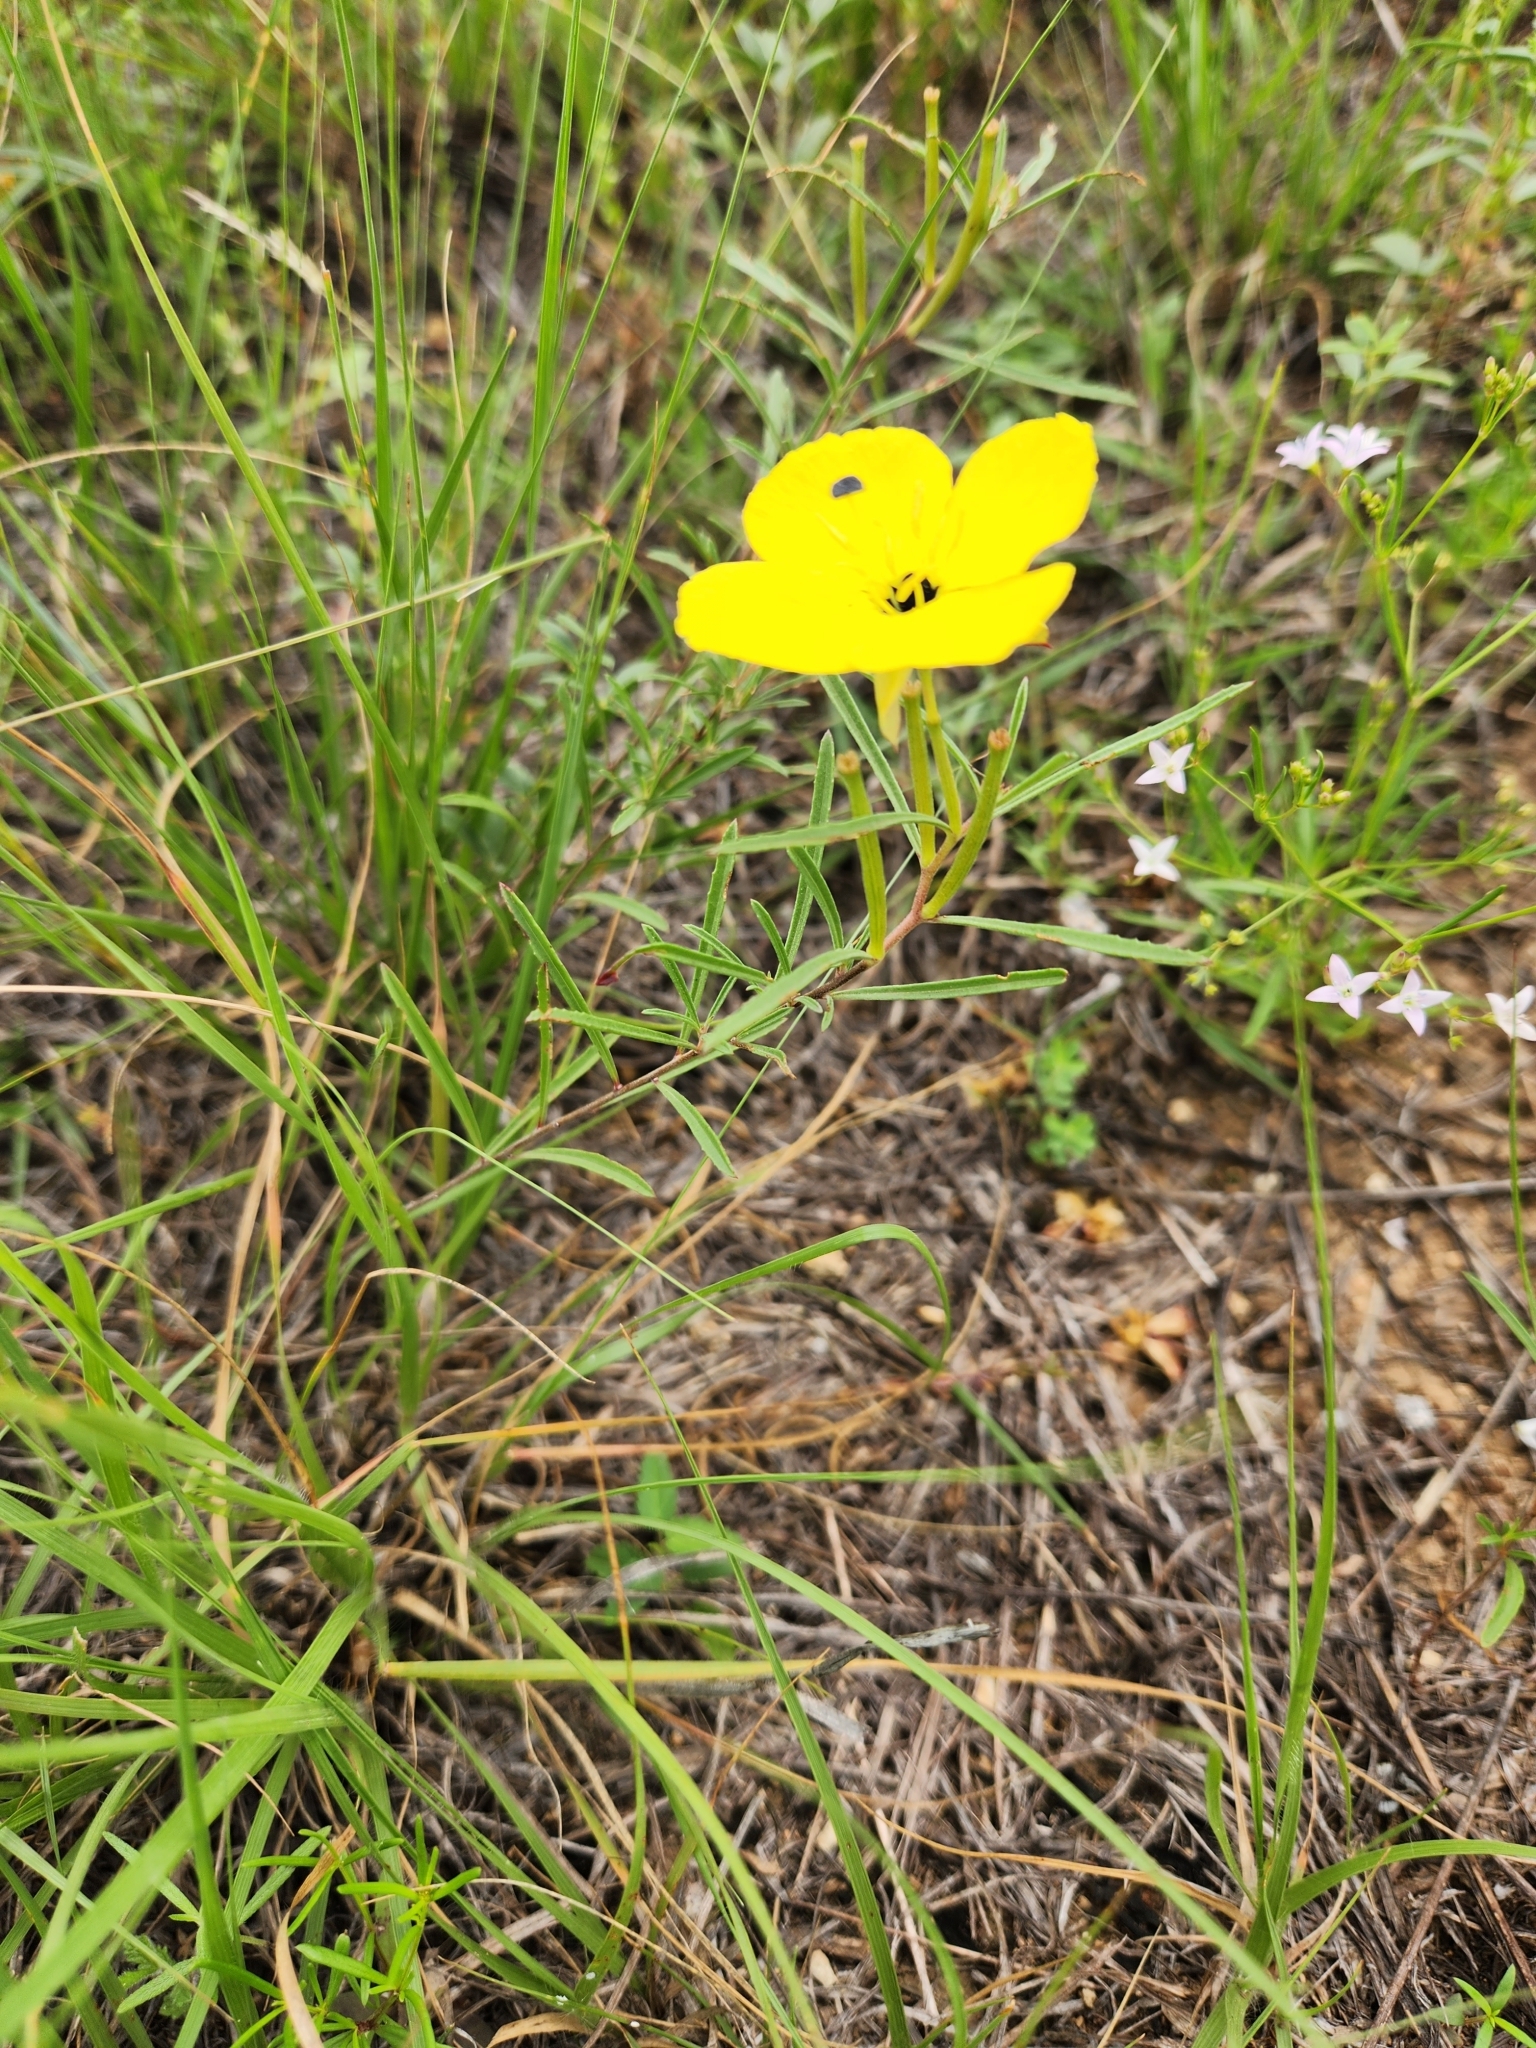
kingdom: Plantae
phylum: Tracheophyta
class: Magnoliopsida
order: Myrtales
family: Onagraceae
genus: Oenothera
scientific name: Oenothera capillifolia
